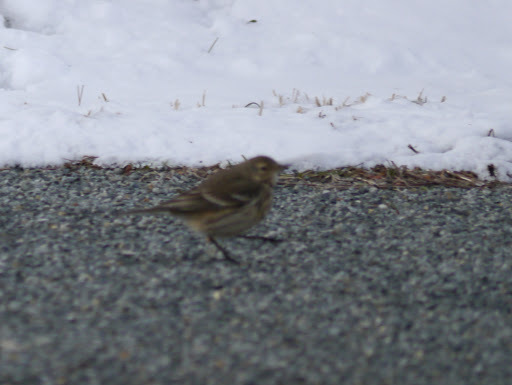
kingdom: Animalia
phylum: Chordata
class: Aves
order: Passeriformes
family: Motacillidae
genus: Anthus
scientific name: Anthus rubescens
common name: Buff-bellied pipit
